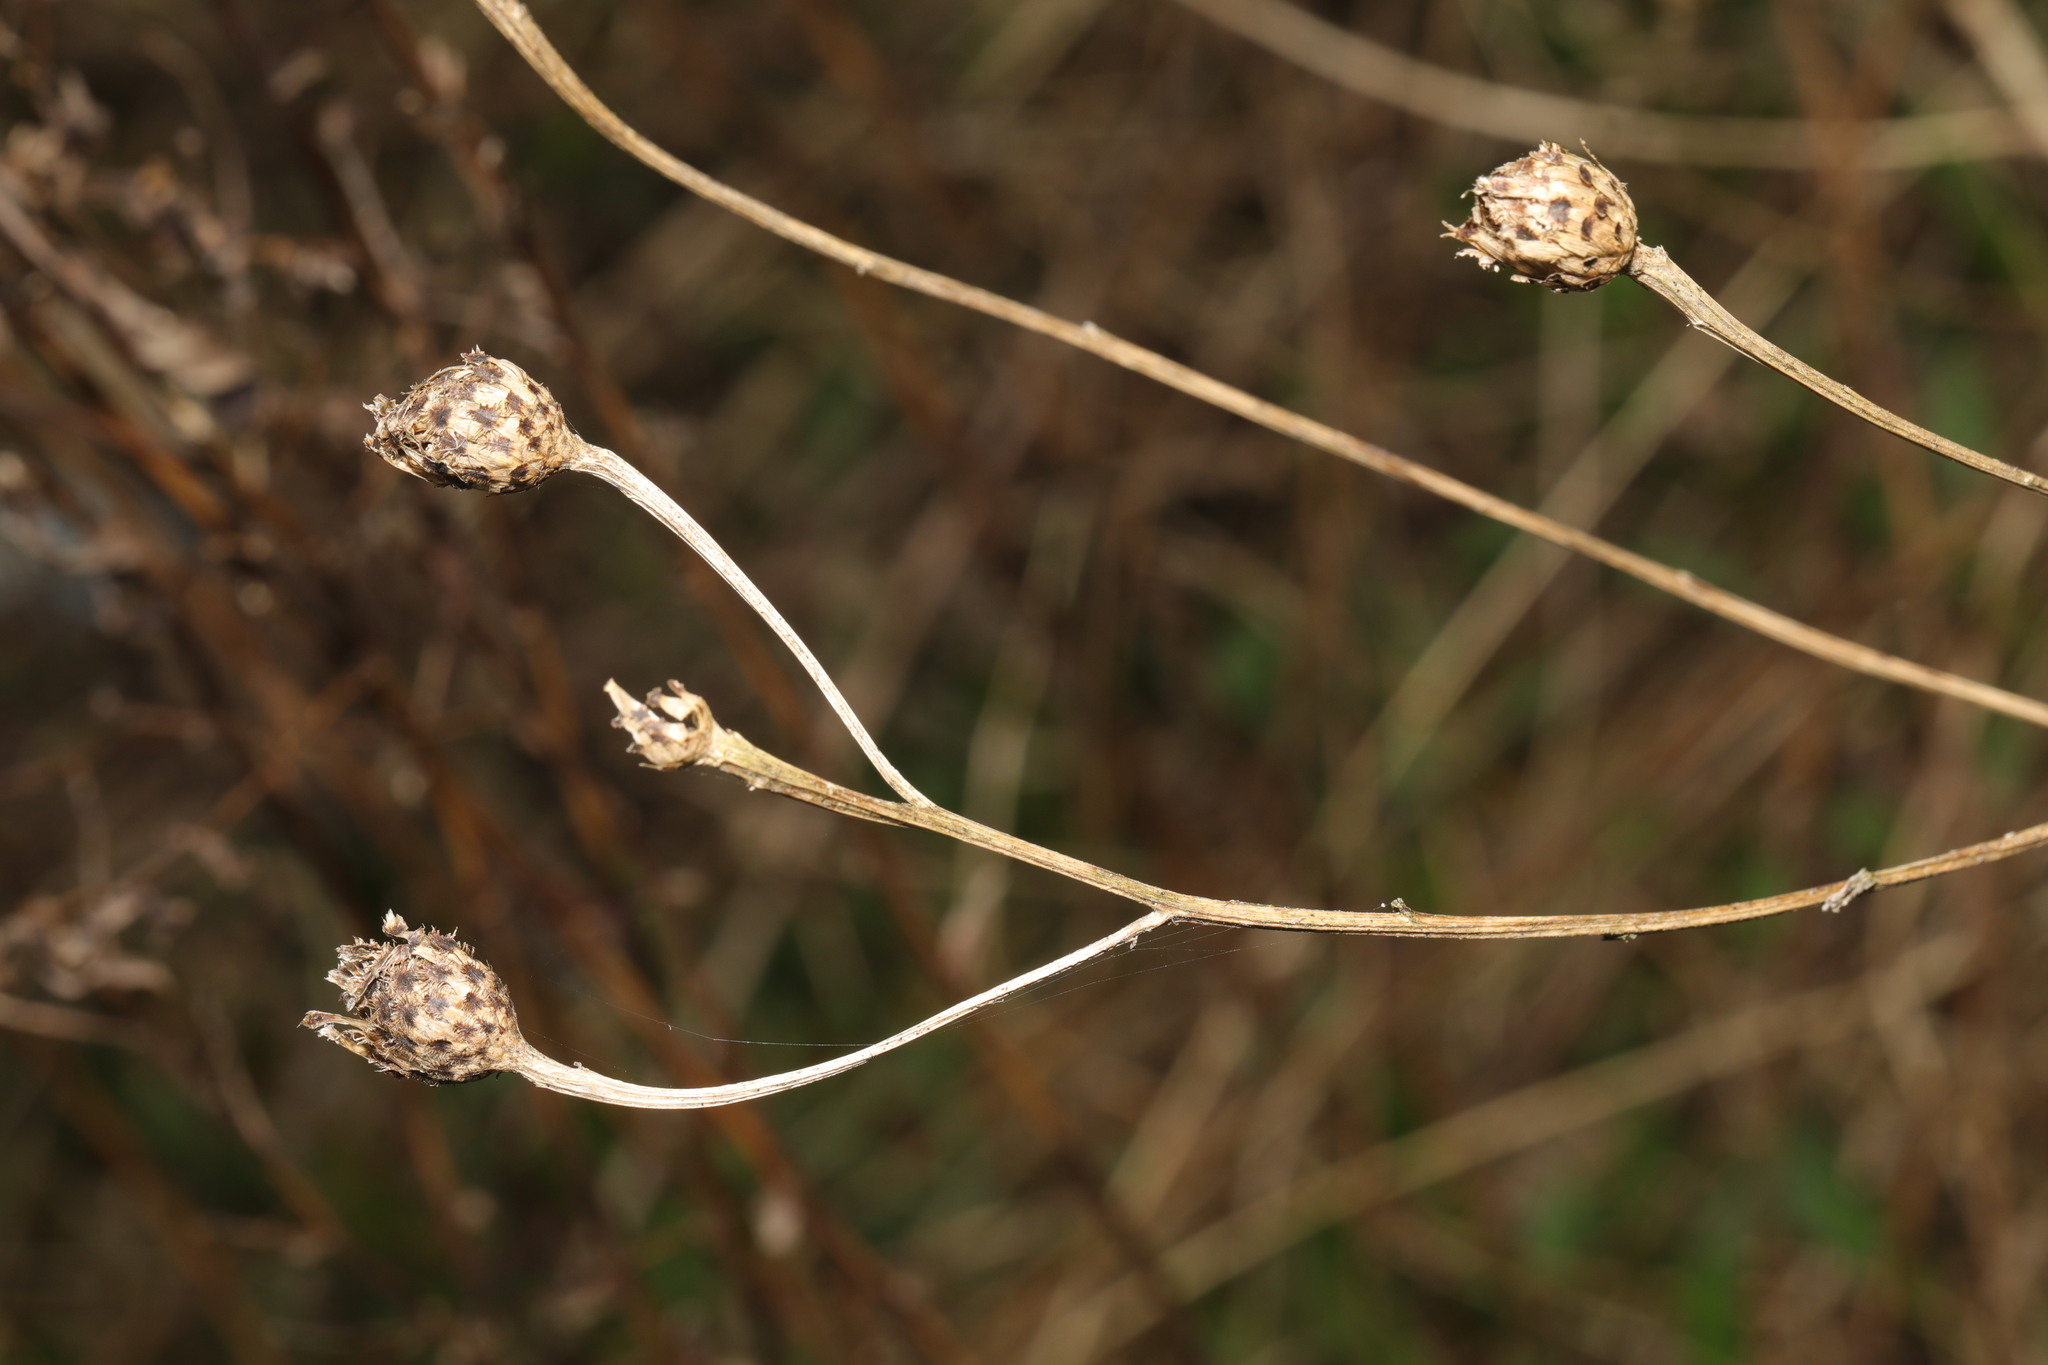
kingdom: Plantae
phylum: Tracheophyta
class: Magnoliopsida
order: Asterales
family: Asteraceae
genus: Centaurea
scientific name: Centaurea nigra
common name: Lesser knapweed
